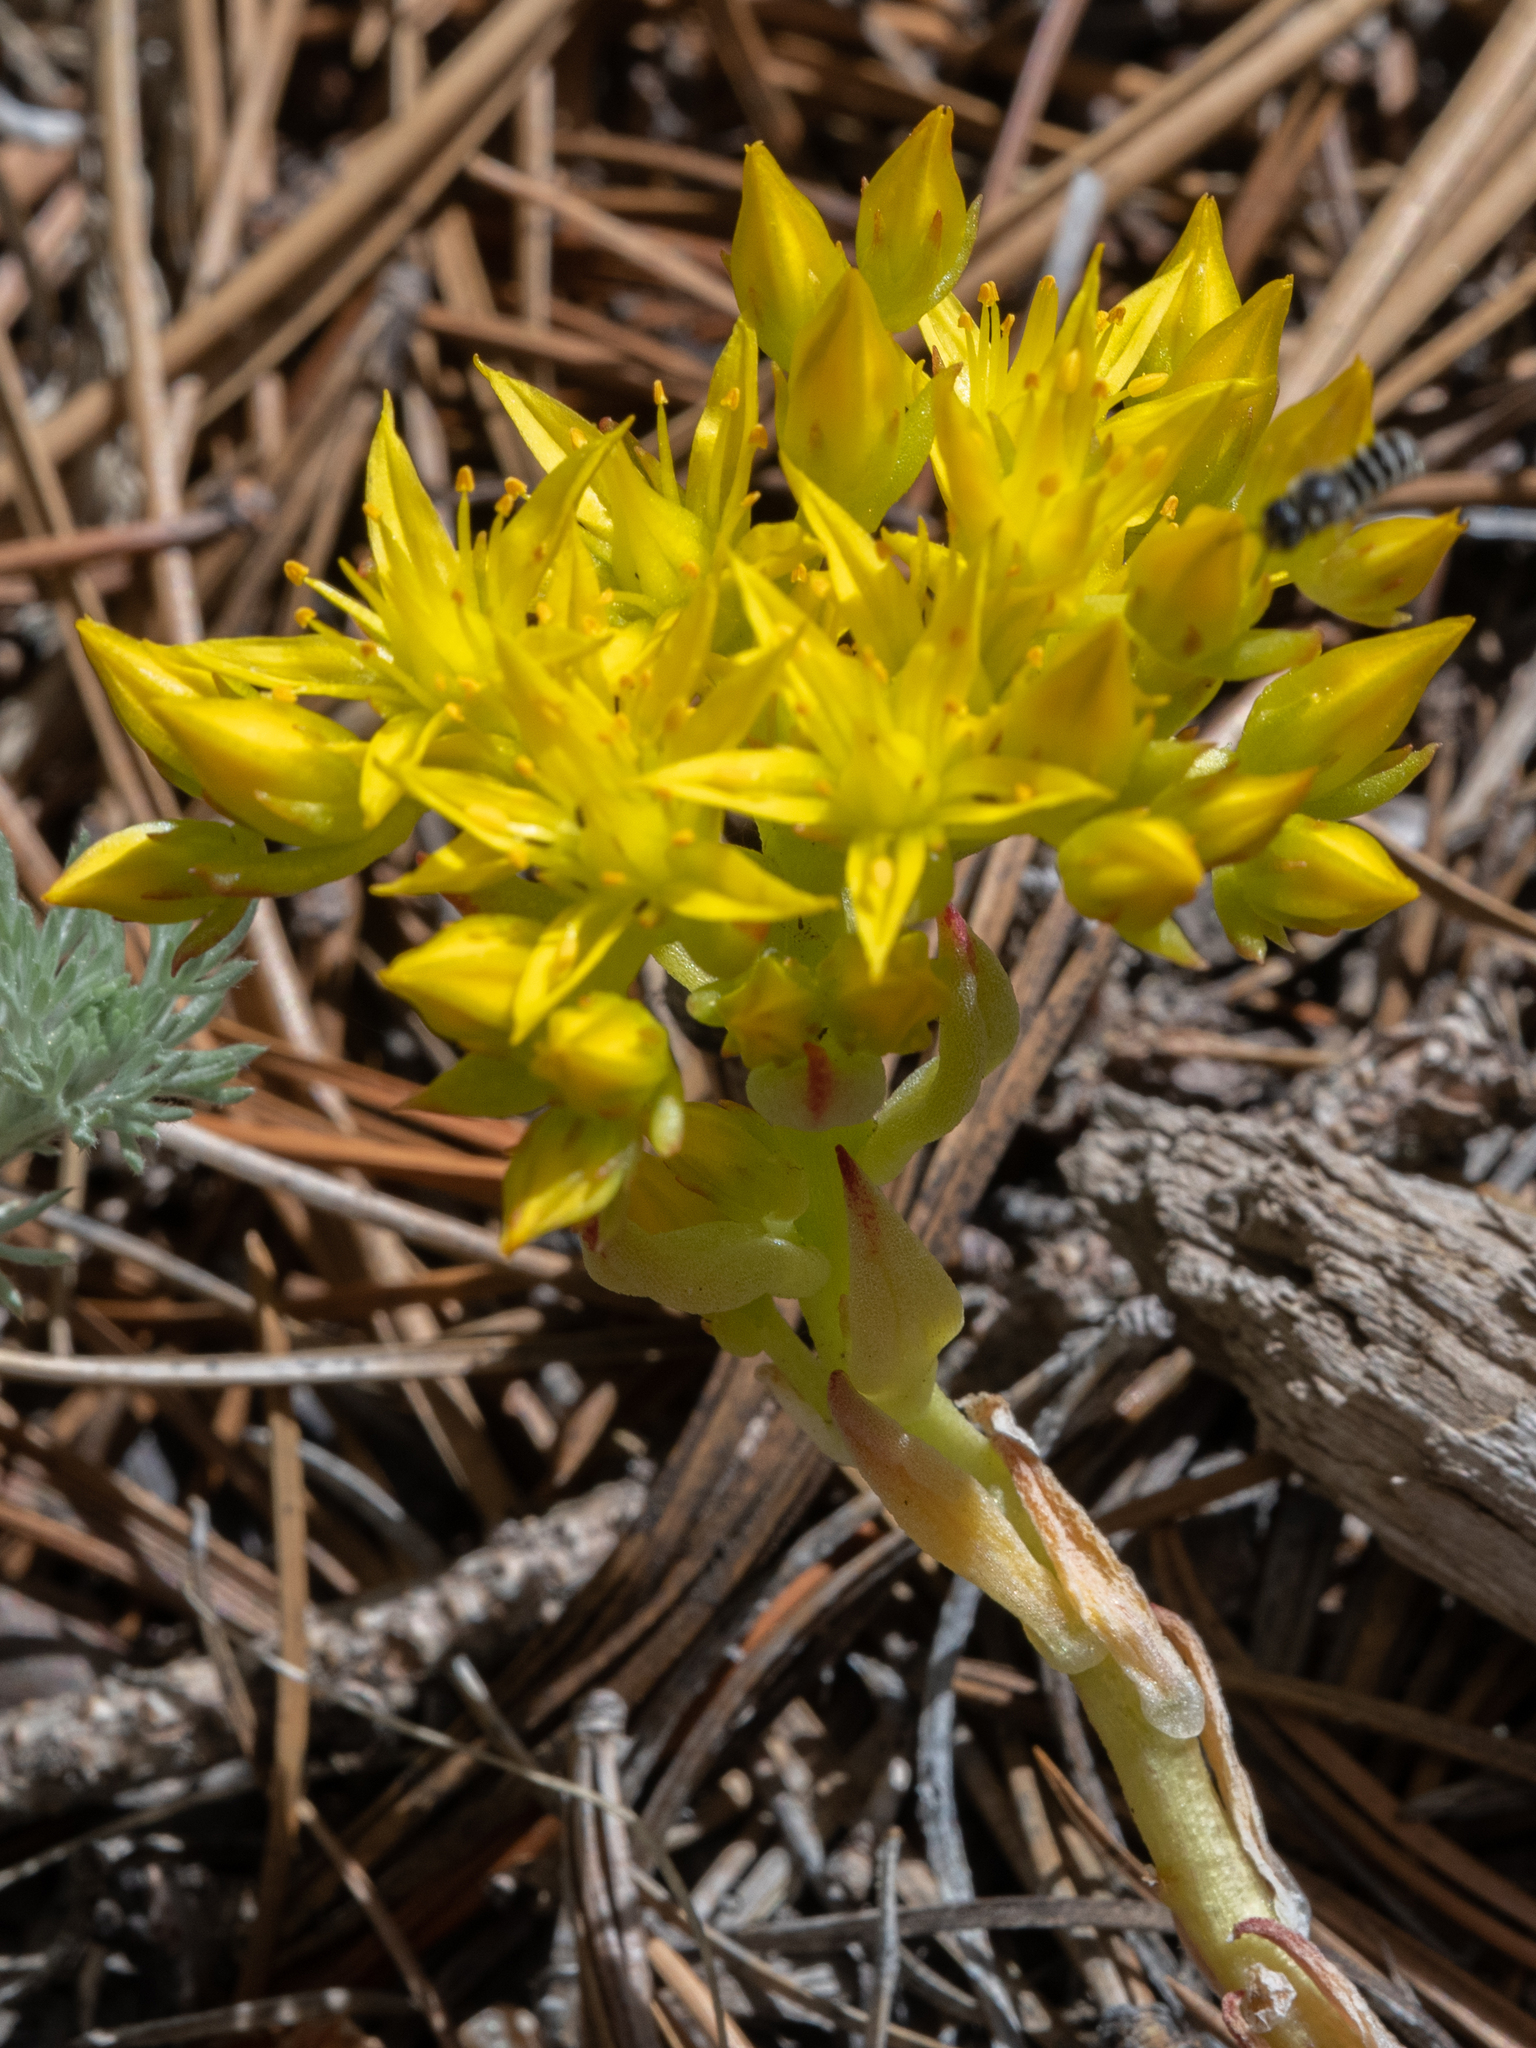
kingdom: Plantae
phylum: Tracheophyta
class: Magnoliopsida
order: Saxifragales
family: Crassulaceae
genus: Sedum
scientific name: Sedum lanceolatum
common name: Common stonecrop
